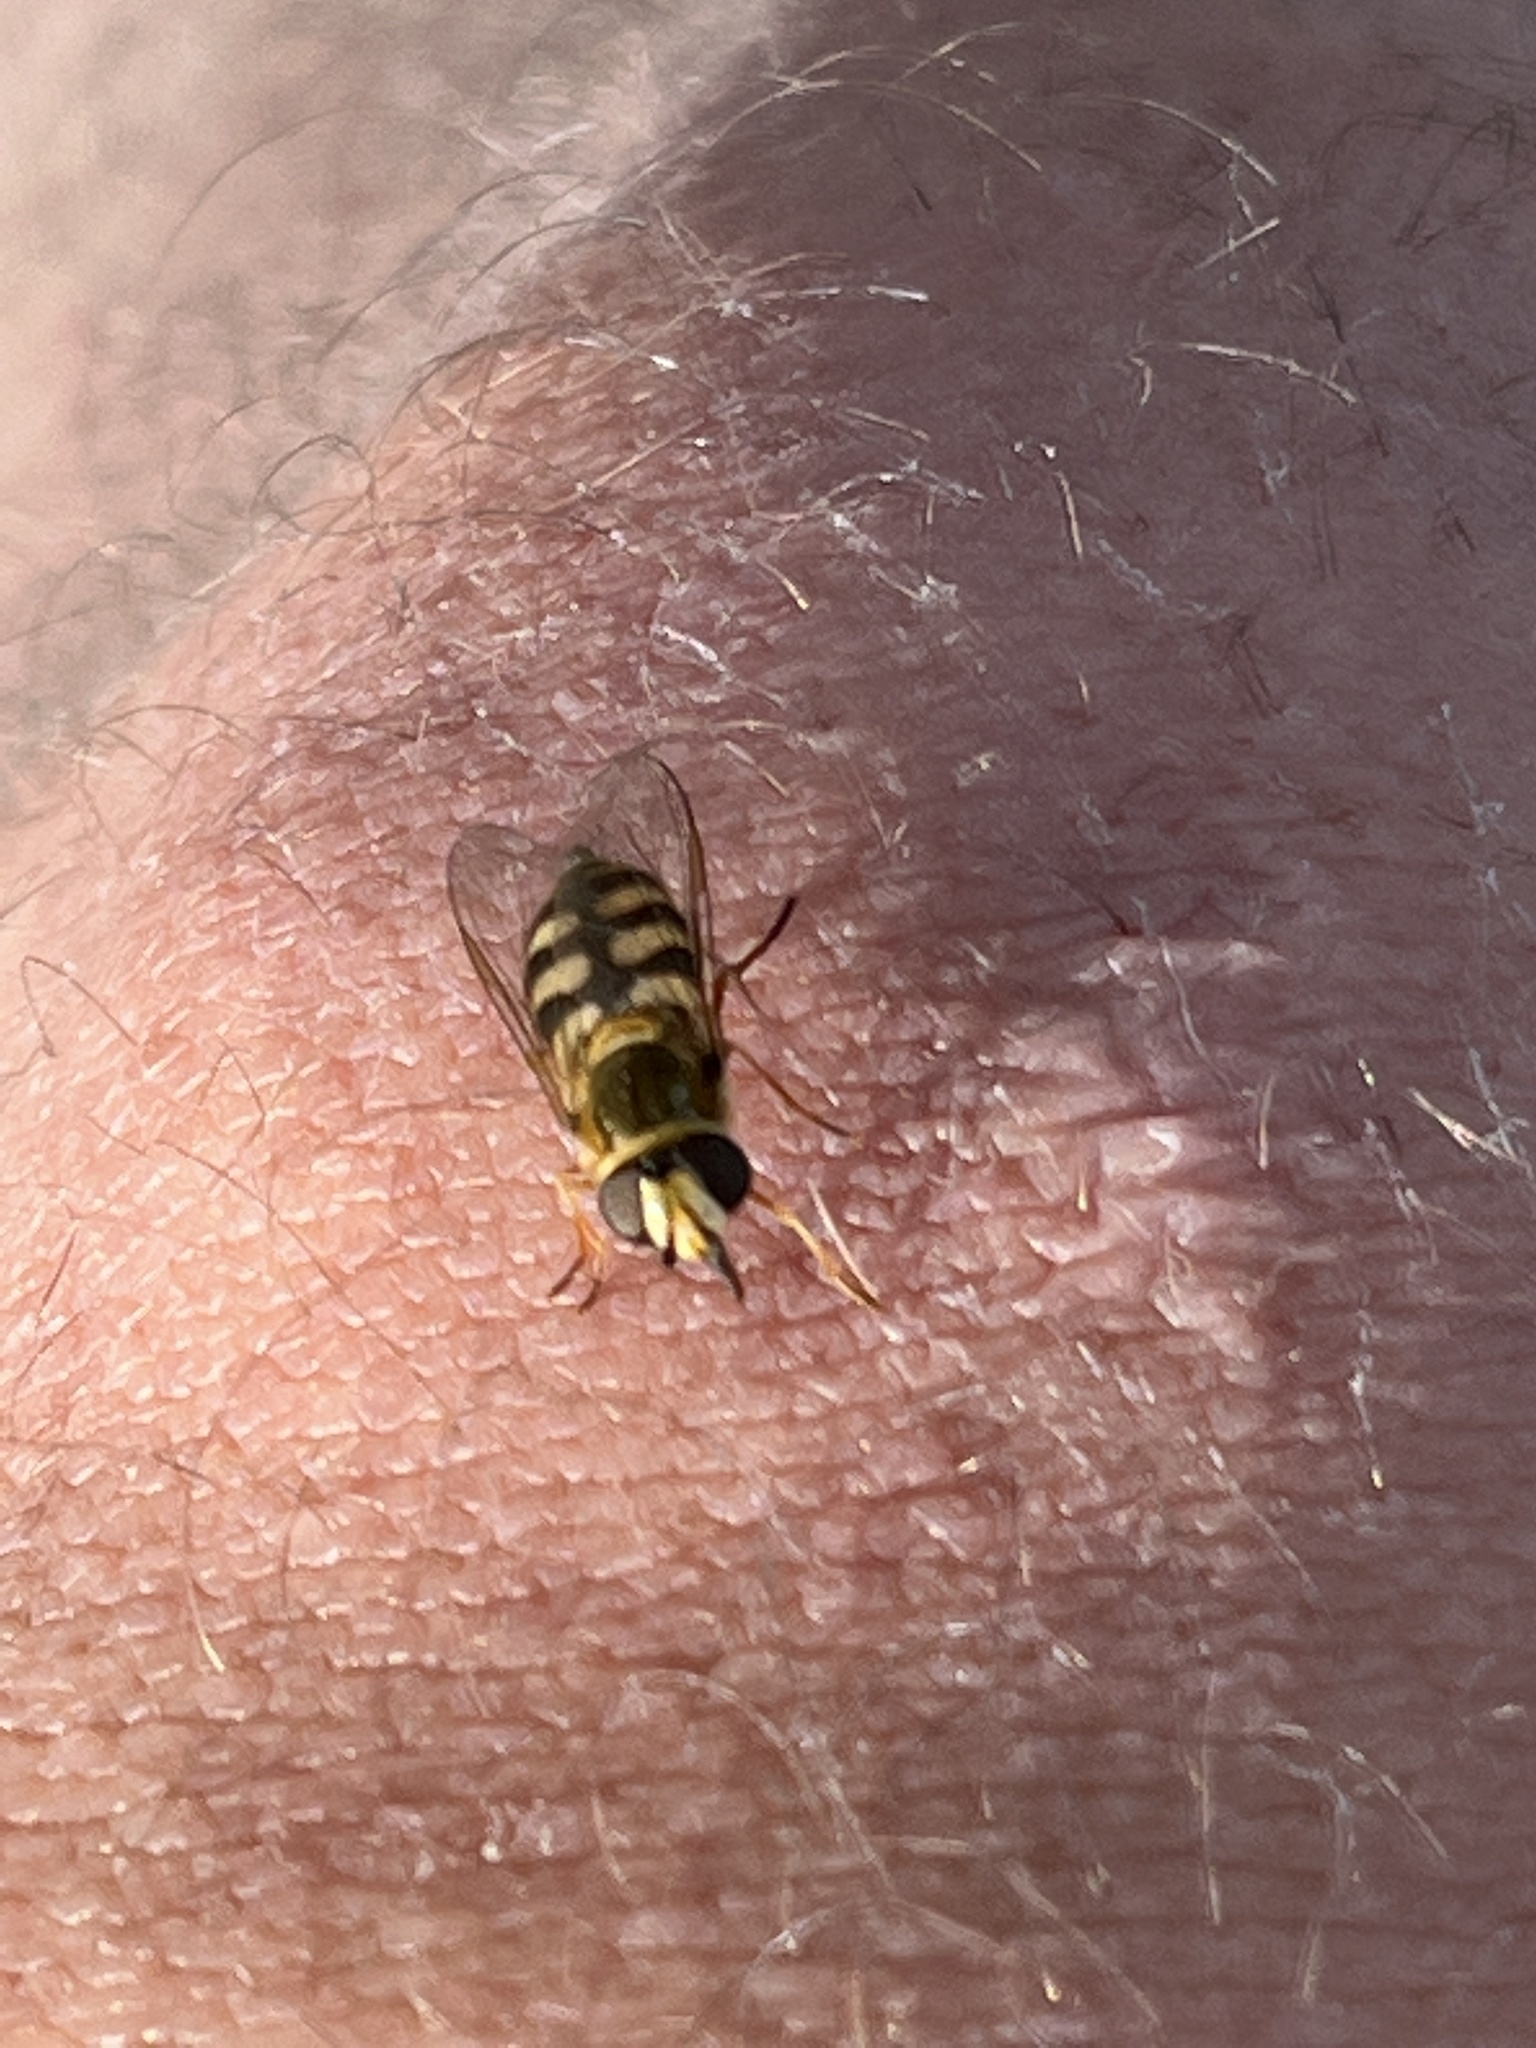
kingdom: Animalia
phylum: Arthropoda
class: Insecta
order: Diptera
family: Syrphidae
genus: Eupeodes
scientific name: Eupeodes corollae
